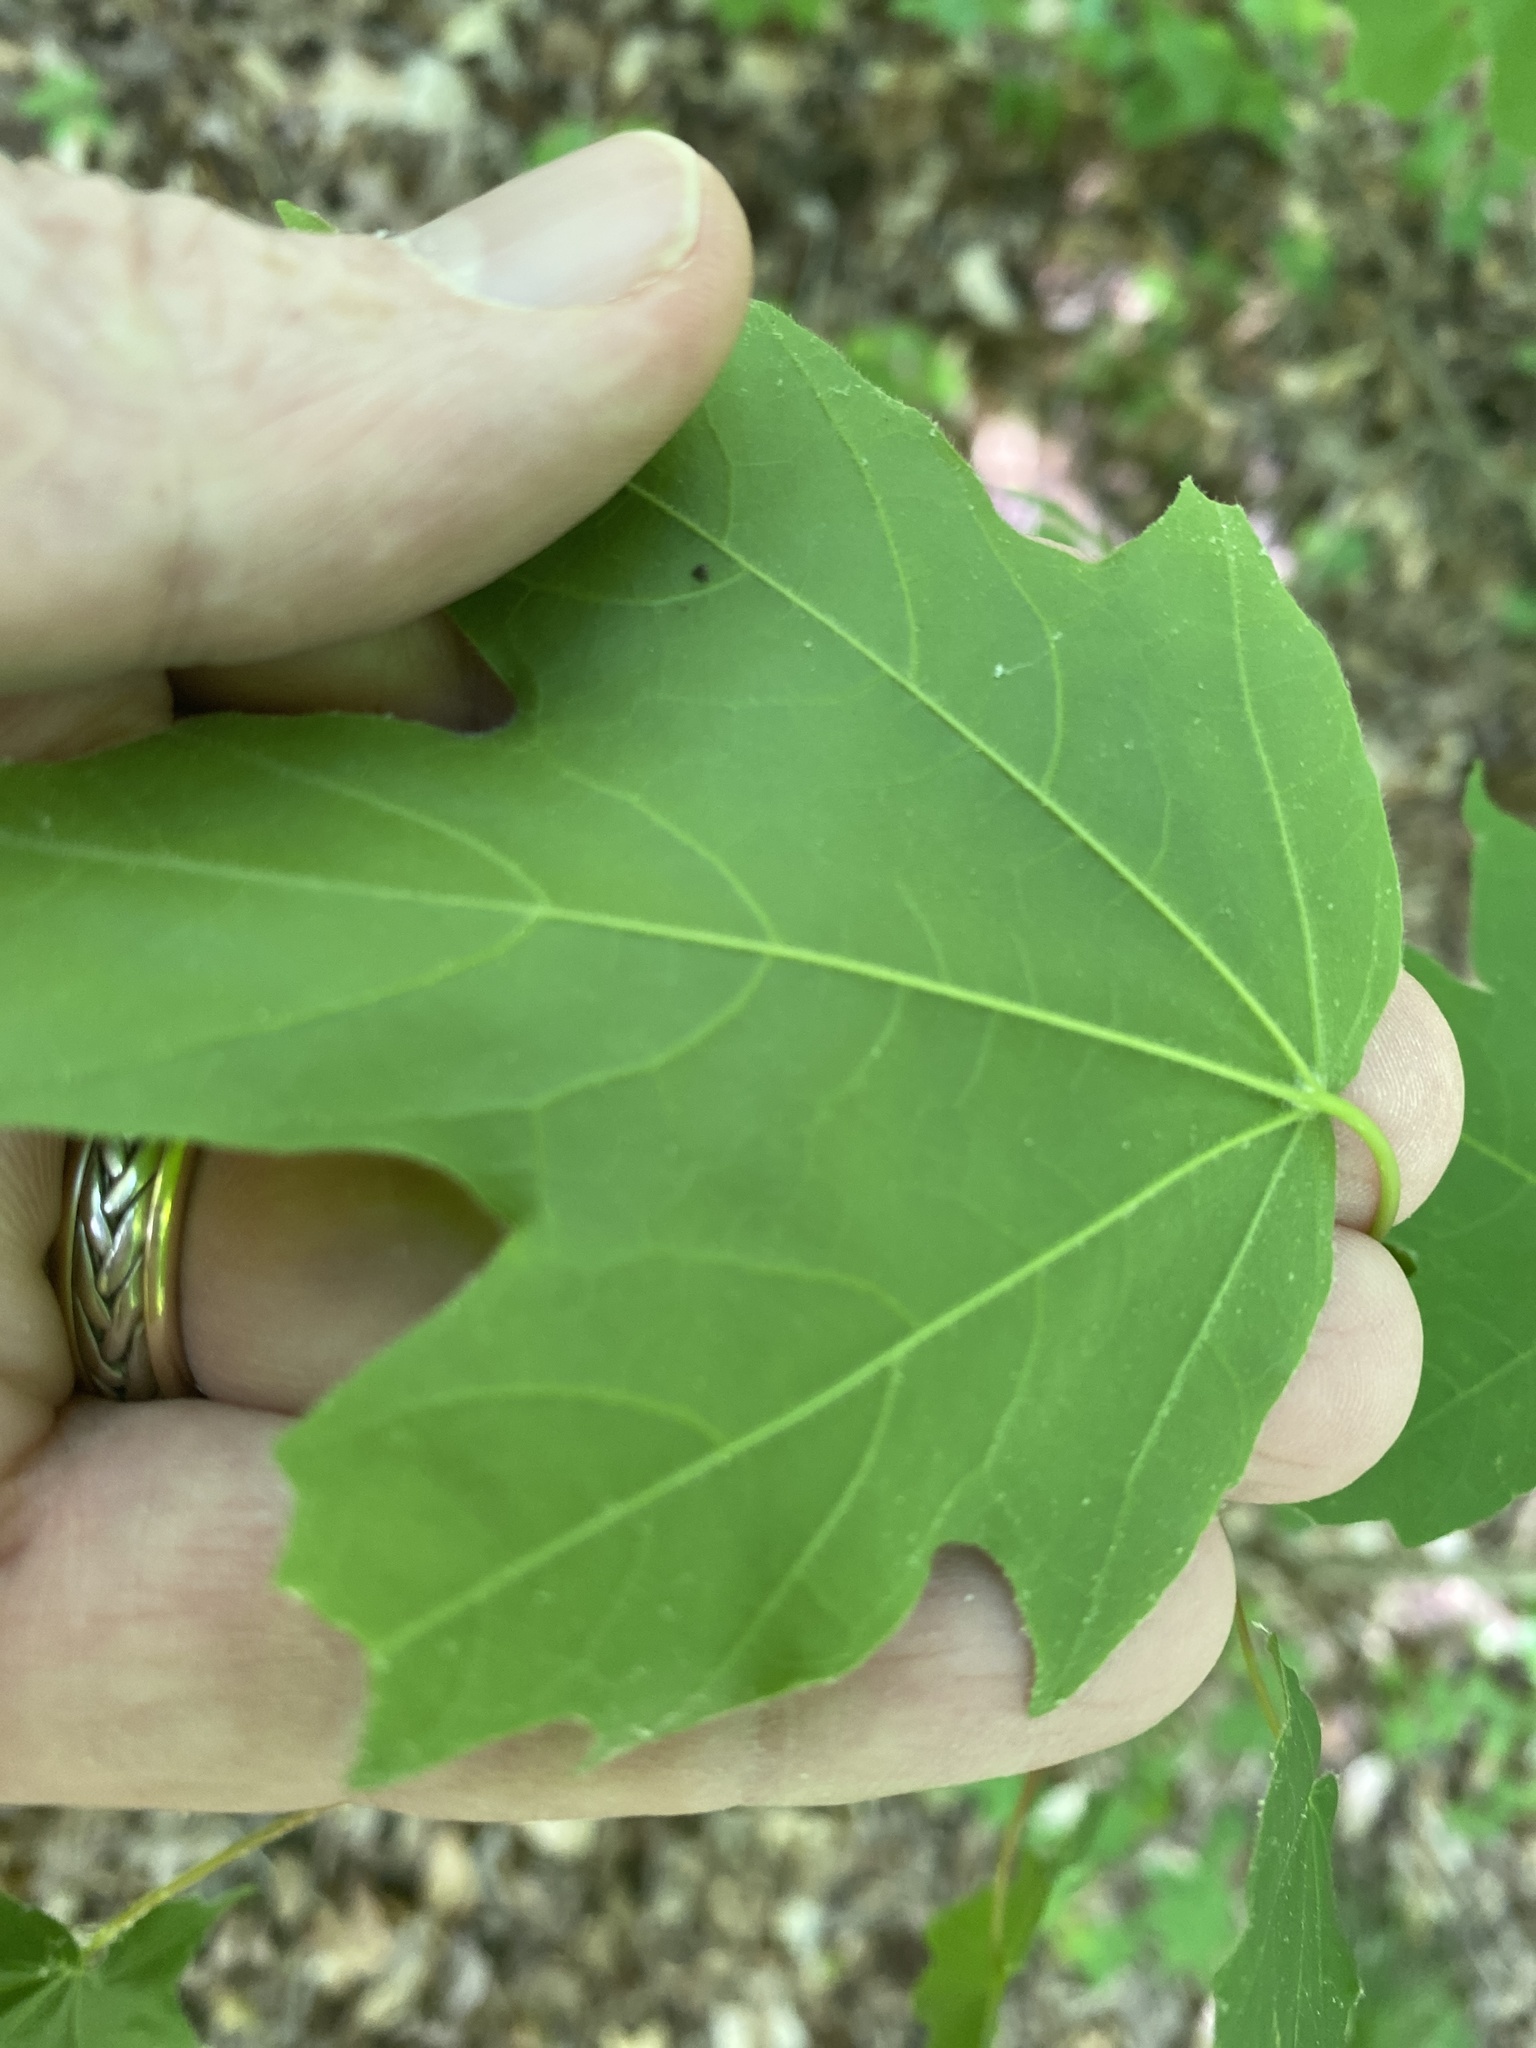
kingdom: Plantae
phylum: Tracheophyta
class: Magnoliopsida
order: Sapindales
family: Sapindaceae
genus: Acer
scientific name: Acer leucoderme
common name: Chalk maple
